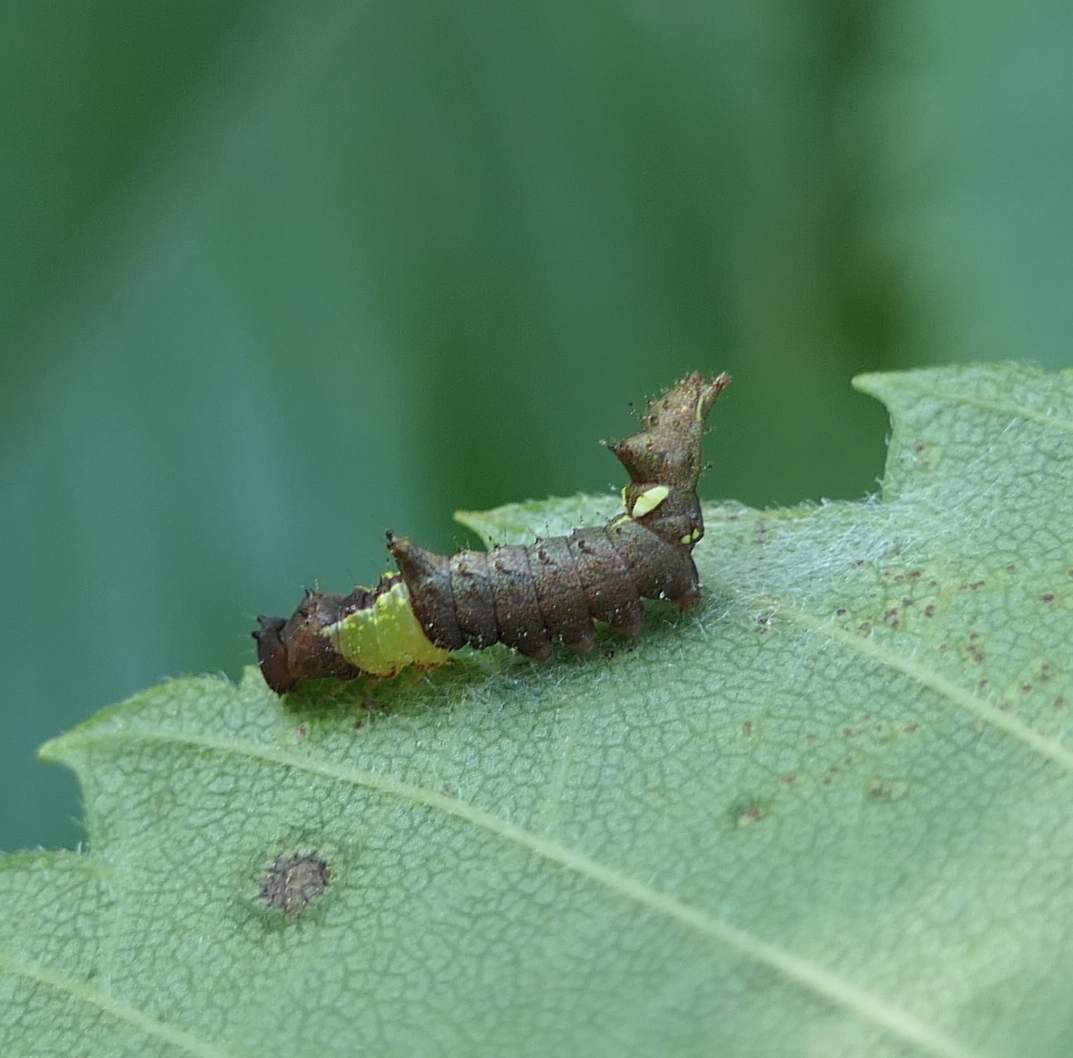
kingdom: Animalia
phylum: Arthropoda
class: Insecta
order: Lepidoptera
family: Notodontidae
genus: Schizura
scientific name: Schizura
